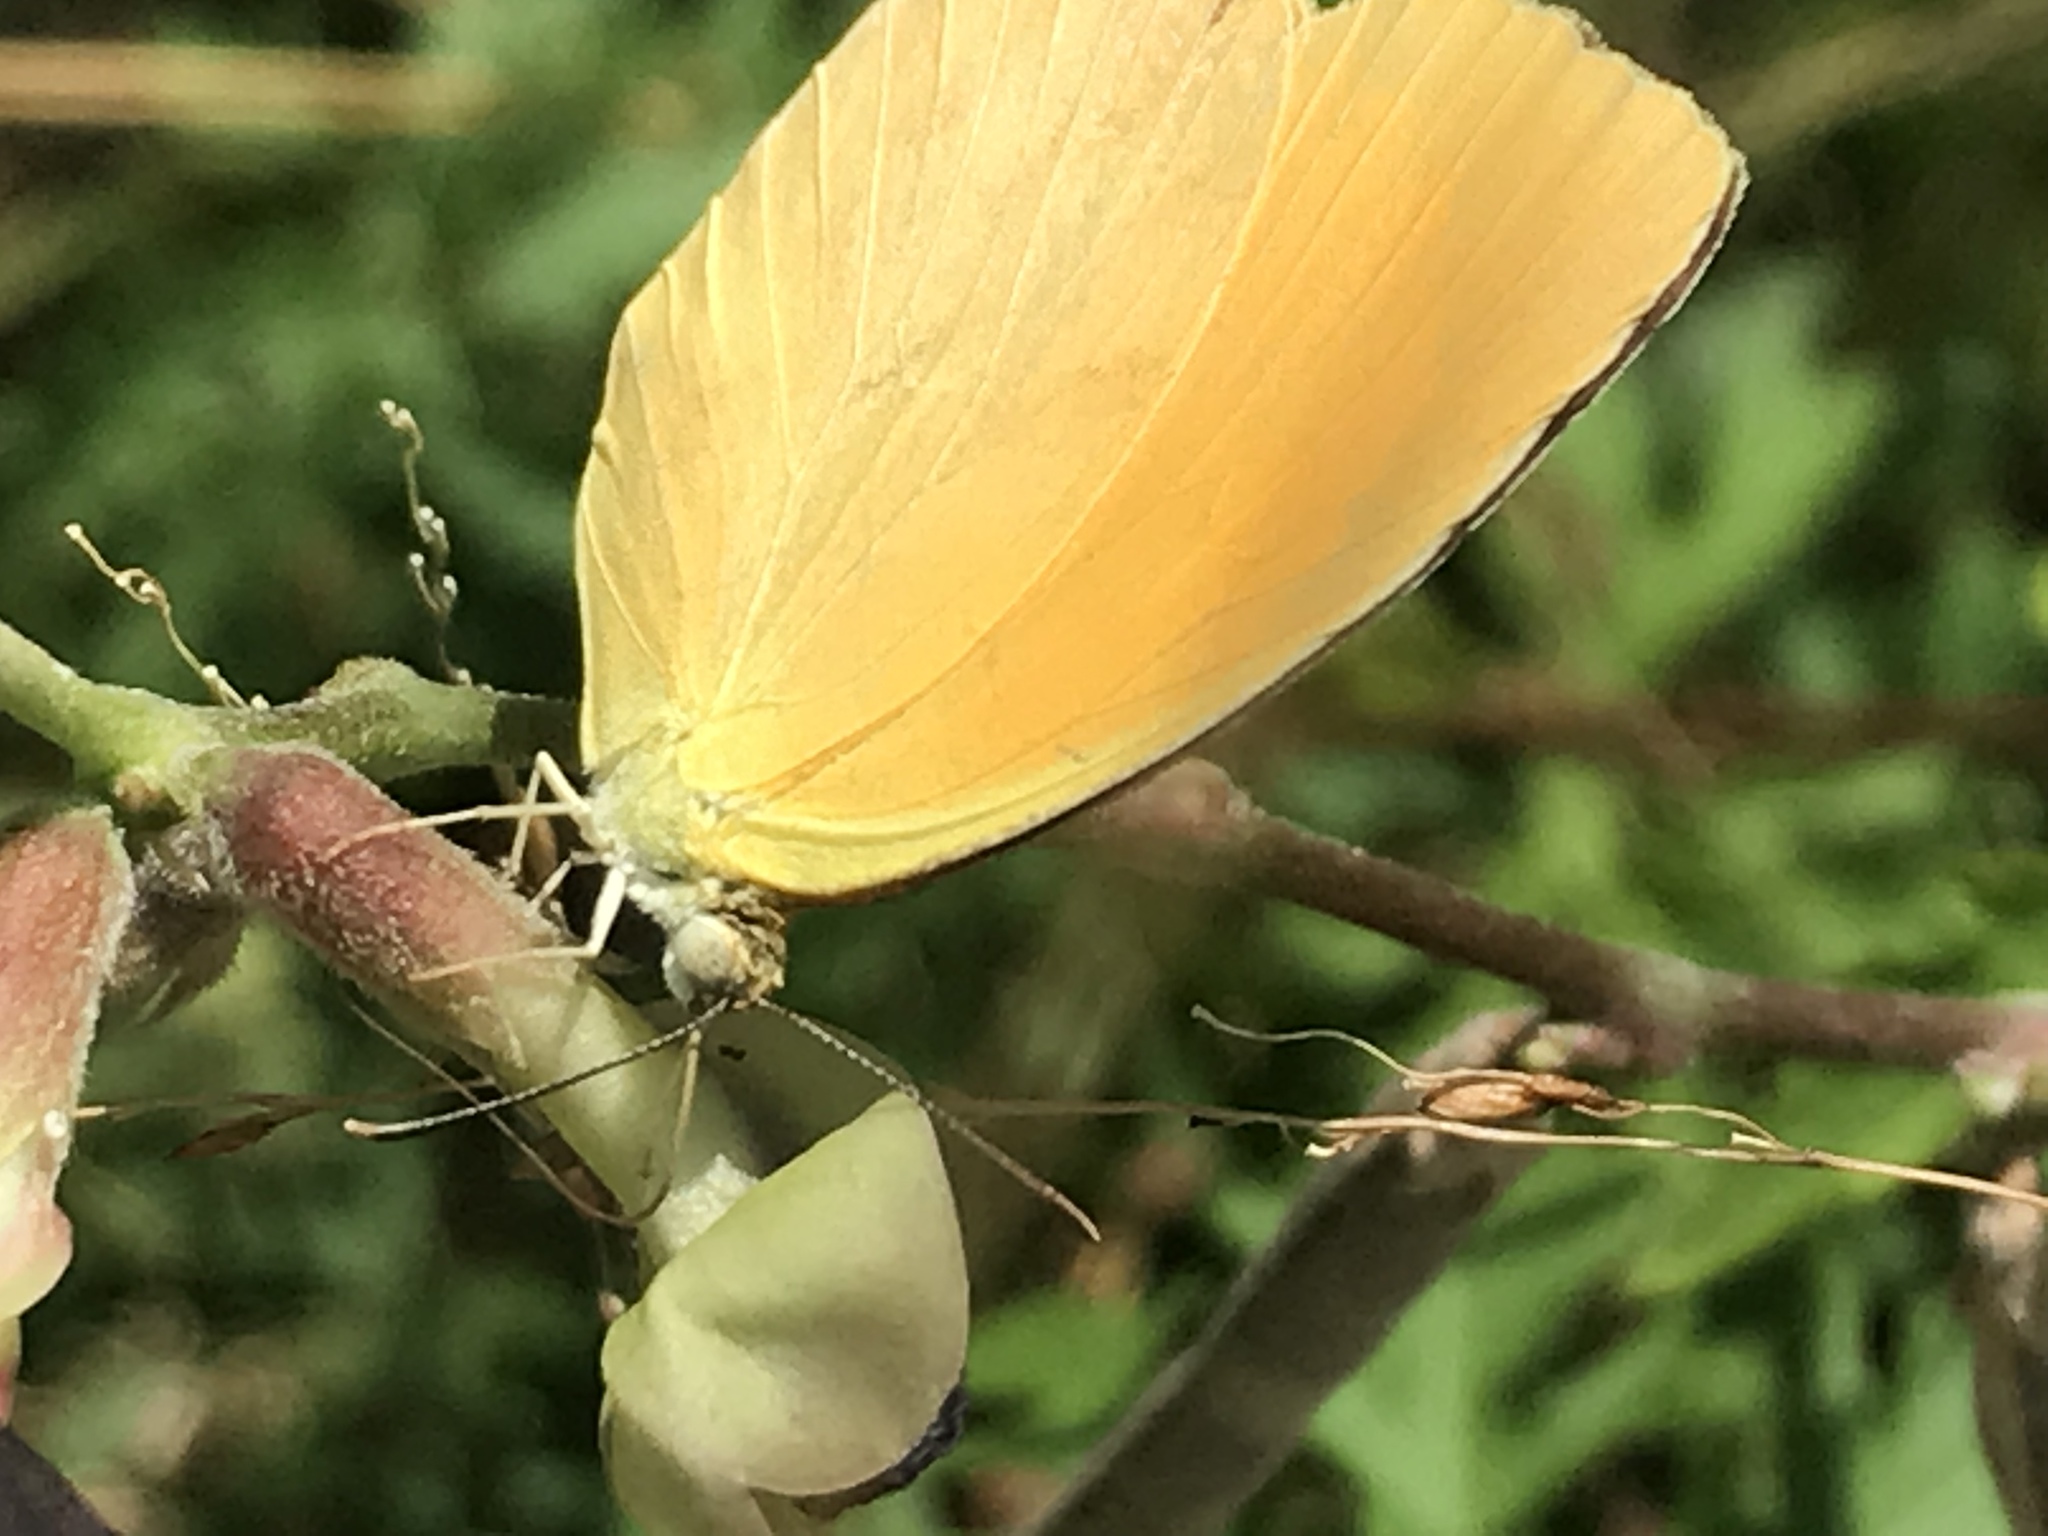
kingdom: Animalia
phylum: Arthropoda
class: Insecta
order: Lepidoptera
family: Pieridae
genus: Pyrisitia
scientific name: Pyrisitia proterpia
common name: Tailed orange
